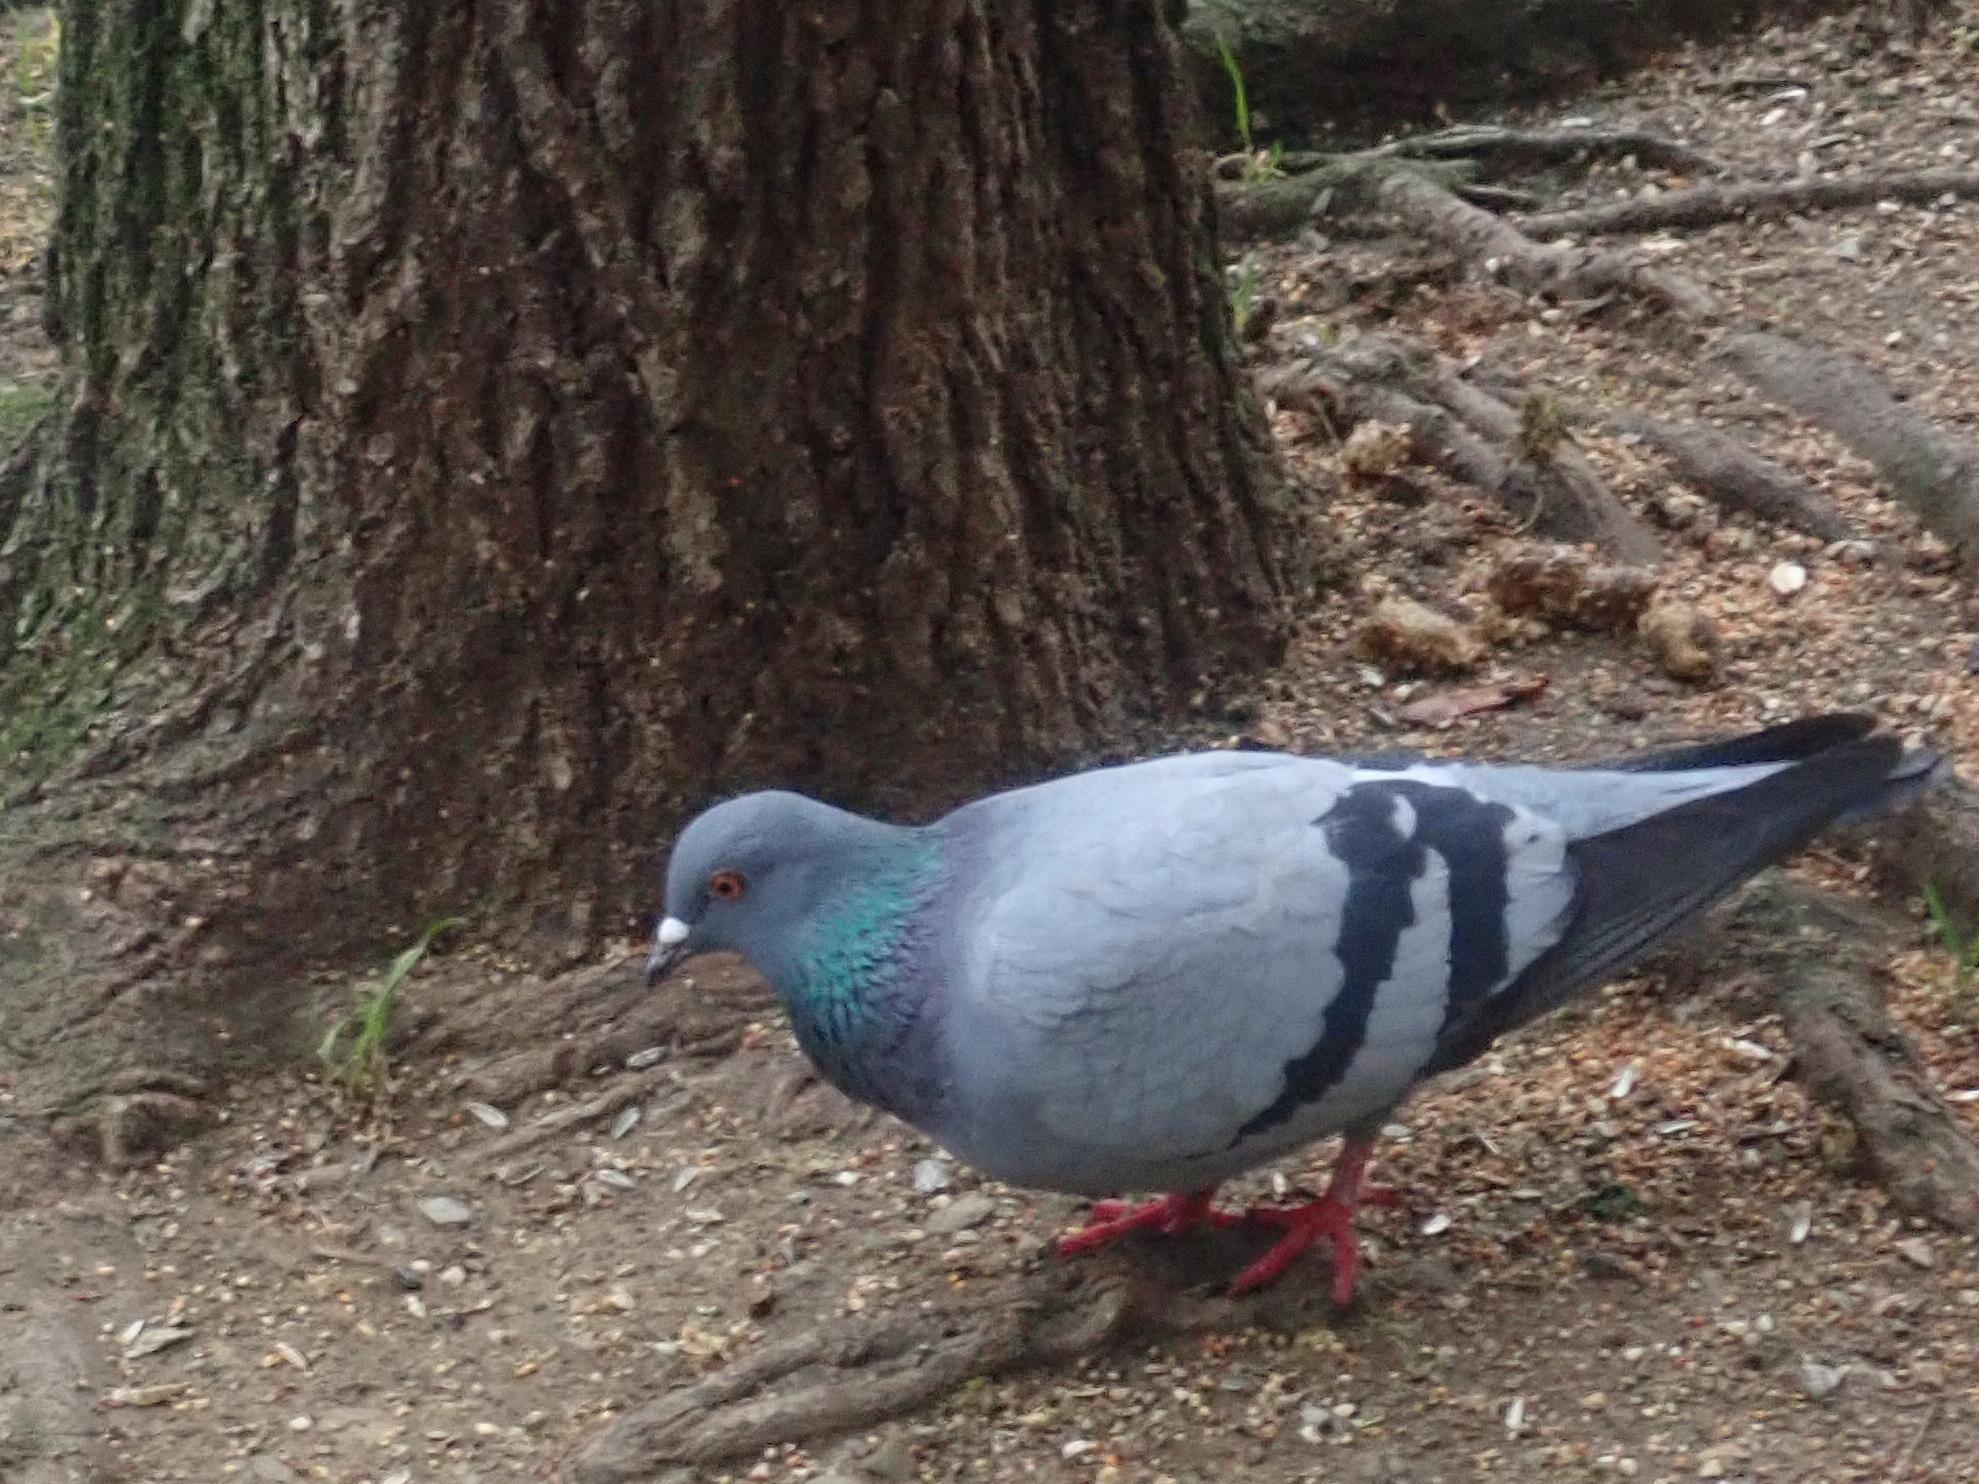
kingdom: Animalia
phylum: Chordata
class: Aves
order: Columbiformes
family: Columbidae
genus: Columba
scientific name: Columba livia
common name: Rock pigeon
